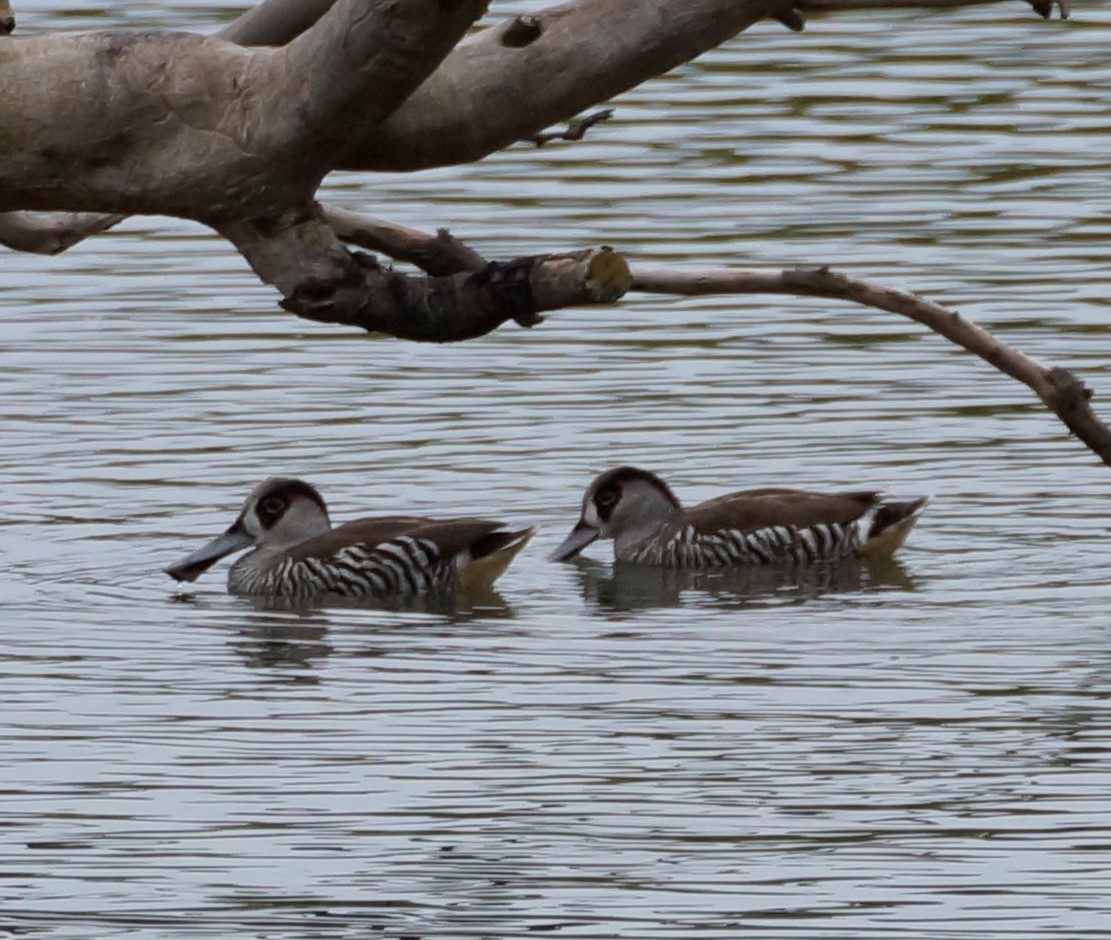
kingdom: Animalia
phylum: Chordata
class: Aves
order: Anseriformes
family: Anatidae
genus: Malacorhynchus
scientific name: Malacorhynchus membranaceus
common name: Pink-eared duck
